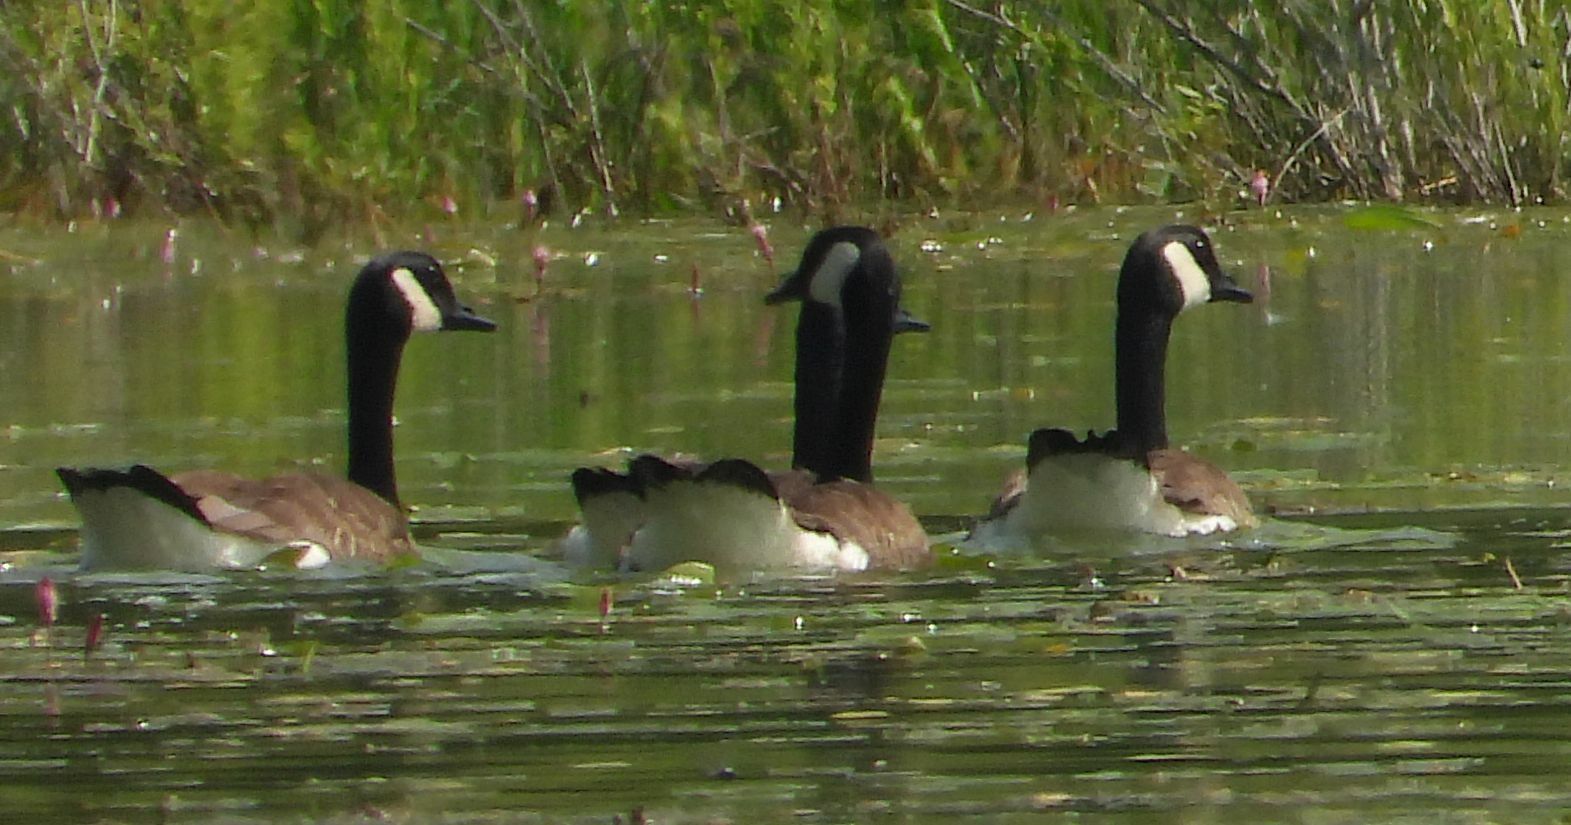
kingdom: Animalia
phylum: Chordata
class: Aves
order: Anseriformes
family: Anatidae
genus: Branta
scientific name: Branta canadensis
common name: Canada goose
